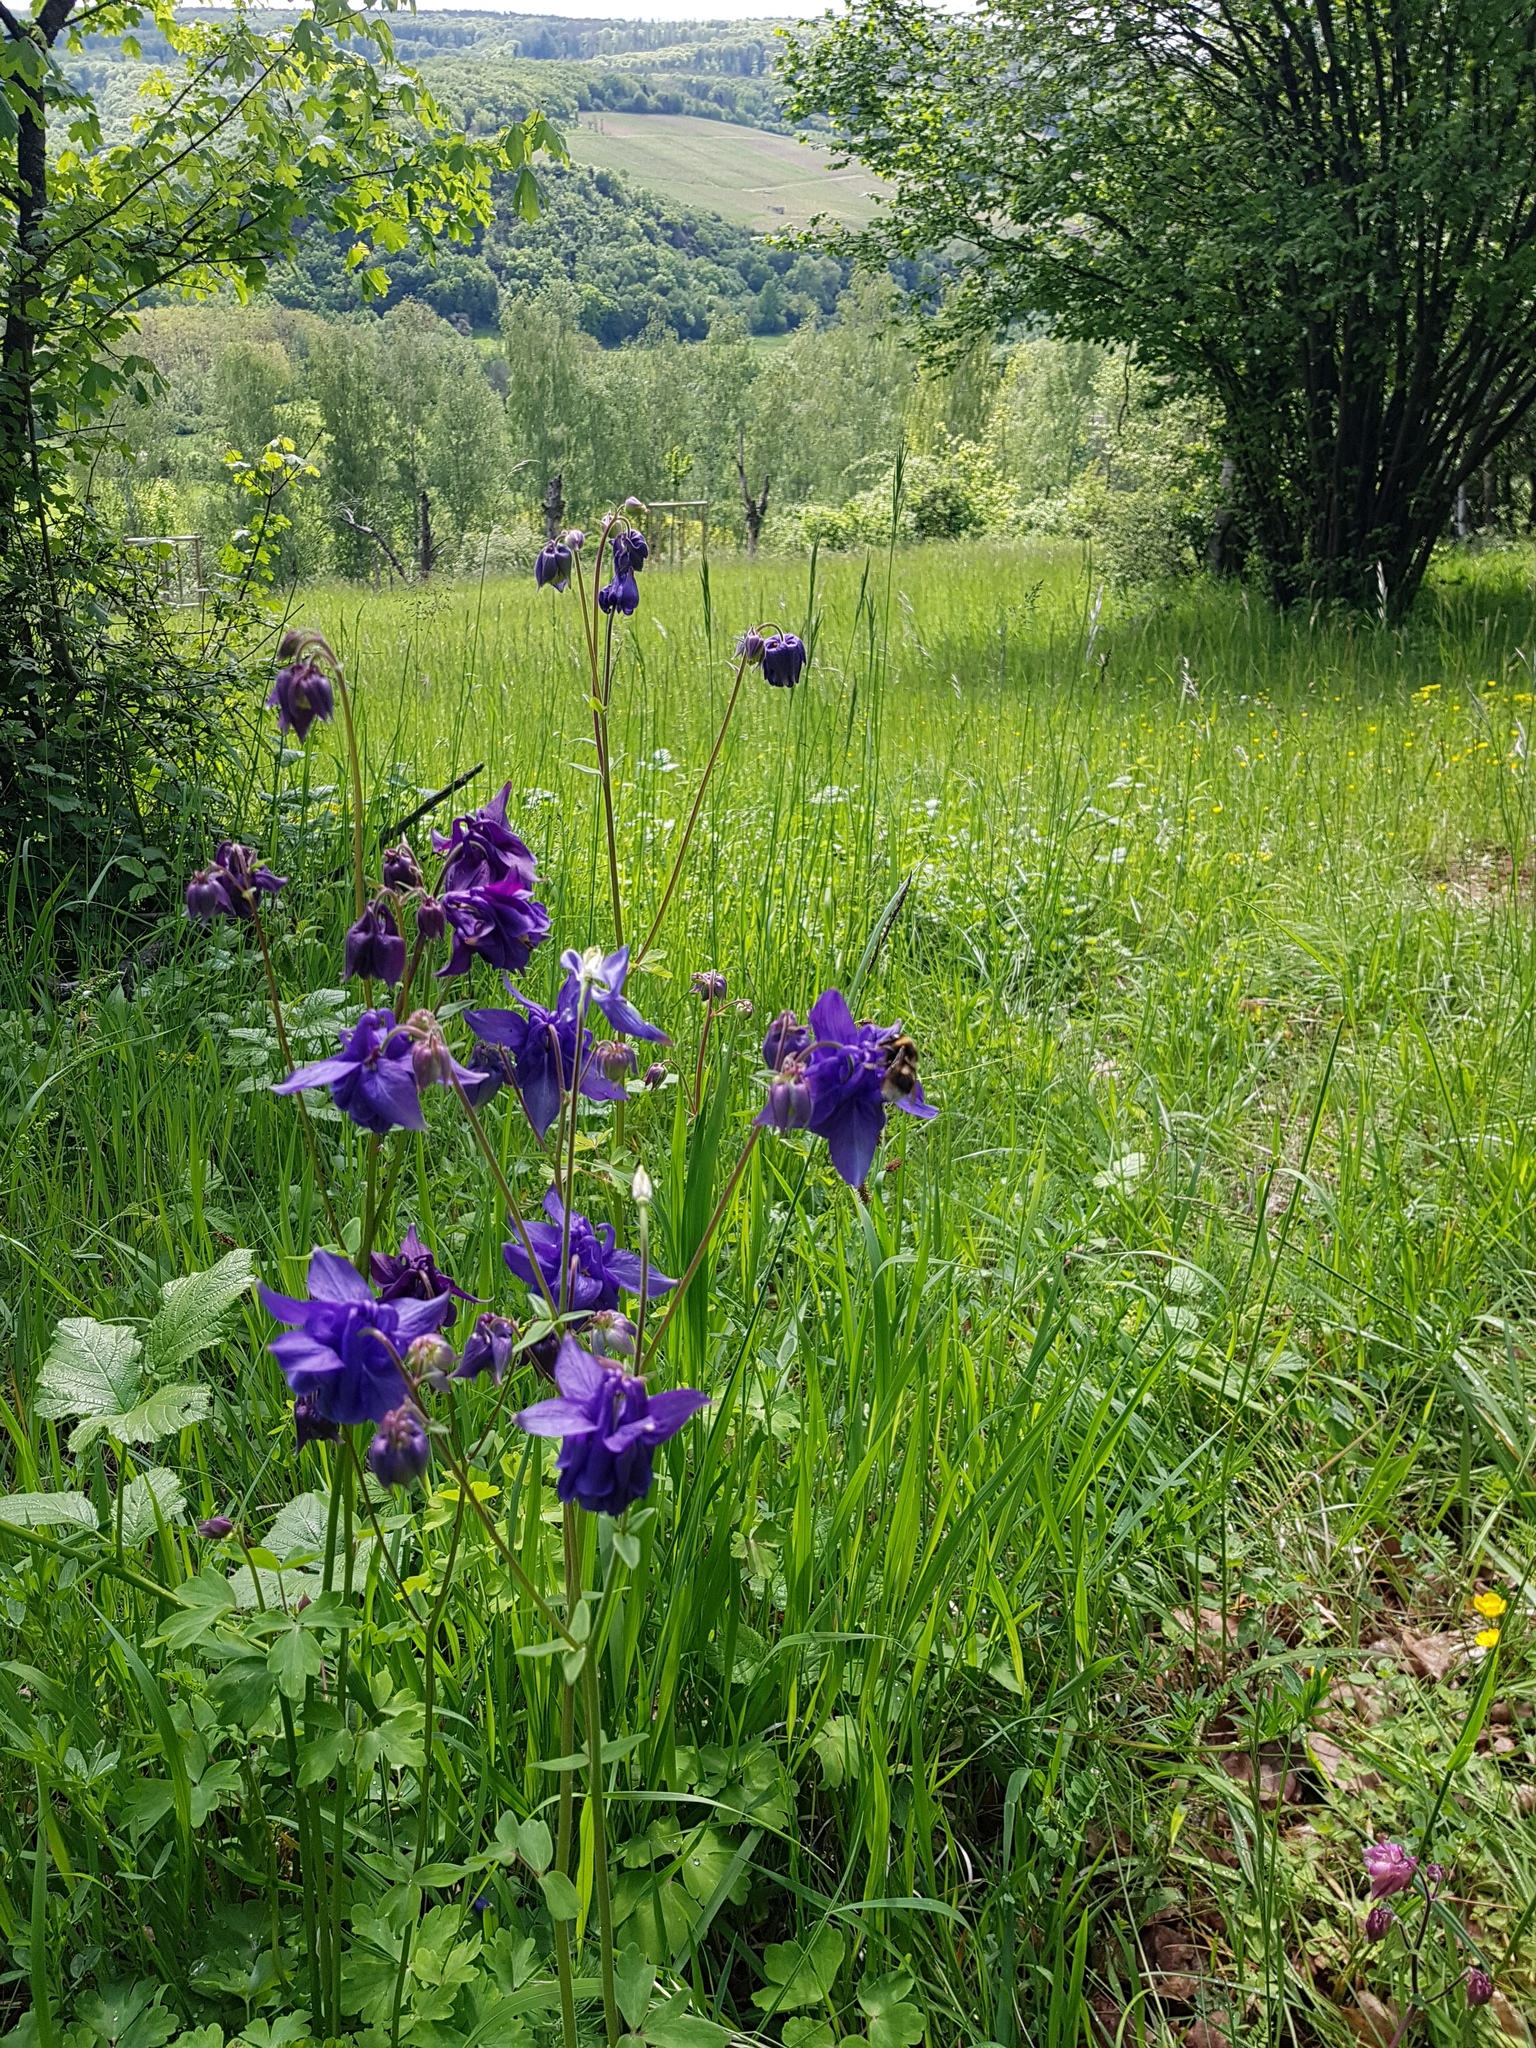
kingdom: Plantae
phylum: Tracheophyta
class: Magnoliopsida
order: Ranunculales
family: Ranunculaceae
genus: Aquilegia
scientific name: Aquilegia vulgaris
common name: Columbine
